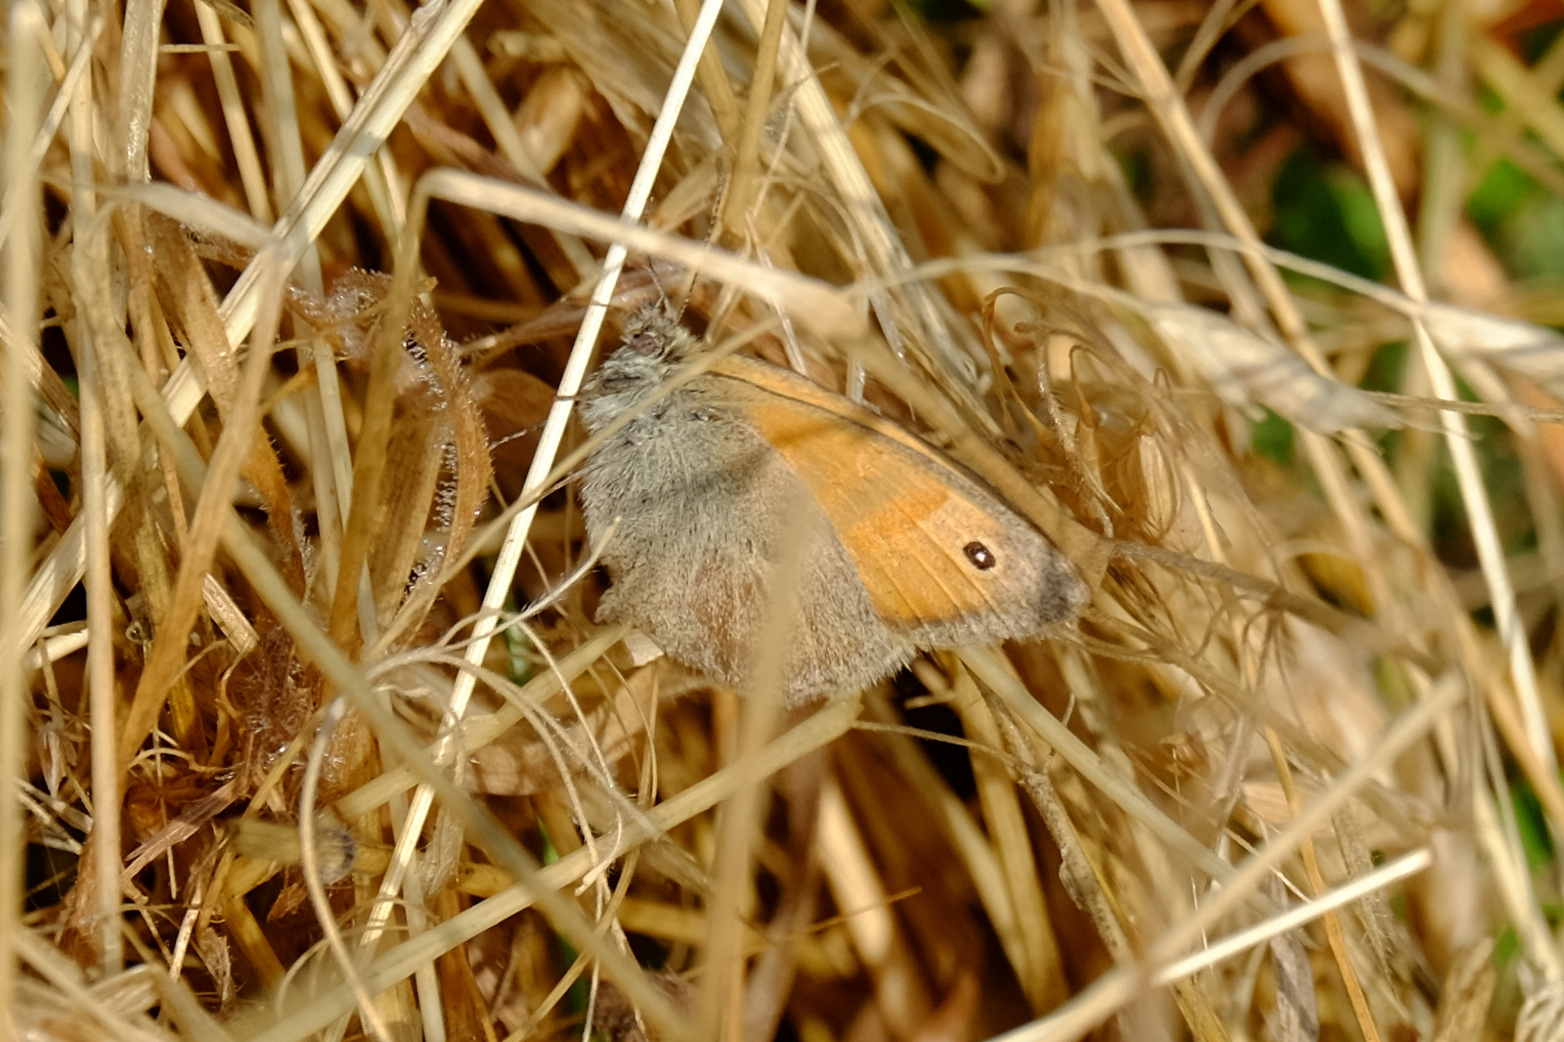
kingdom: Animalia
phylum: Arthropoda
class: Insecta
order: Lepidoptera
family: Nymphalidae
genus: Coenonympha
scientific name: Coenonympha pamphilus
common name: Small heath
